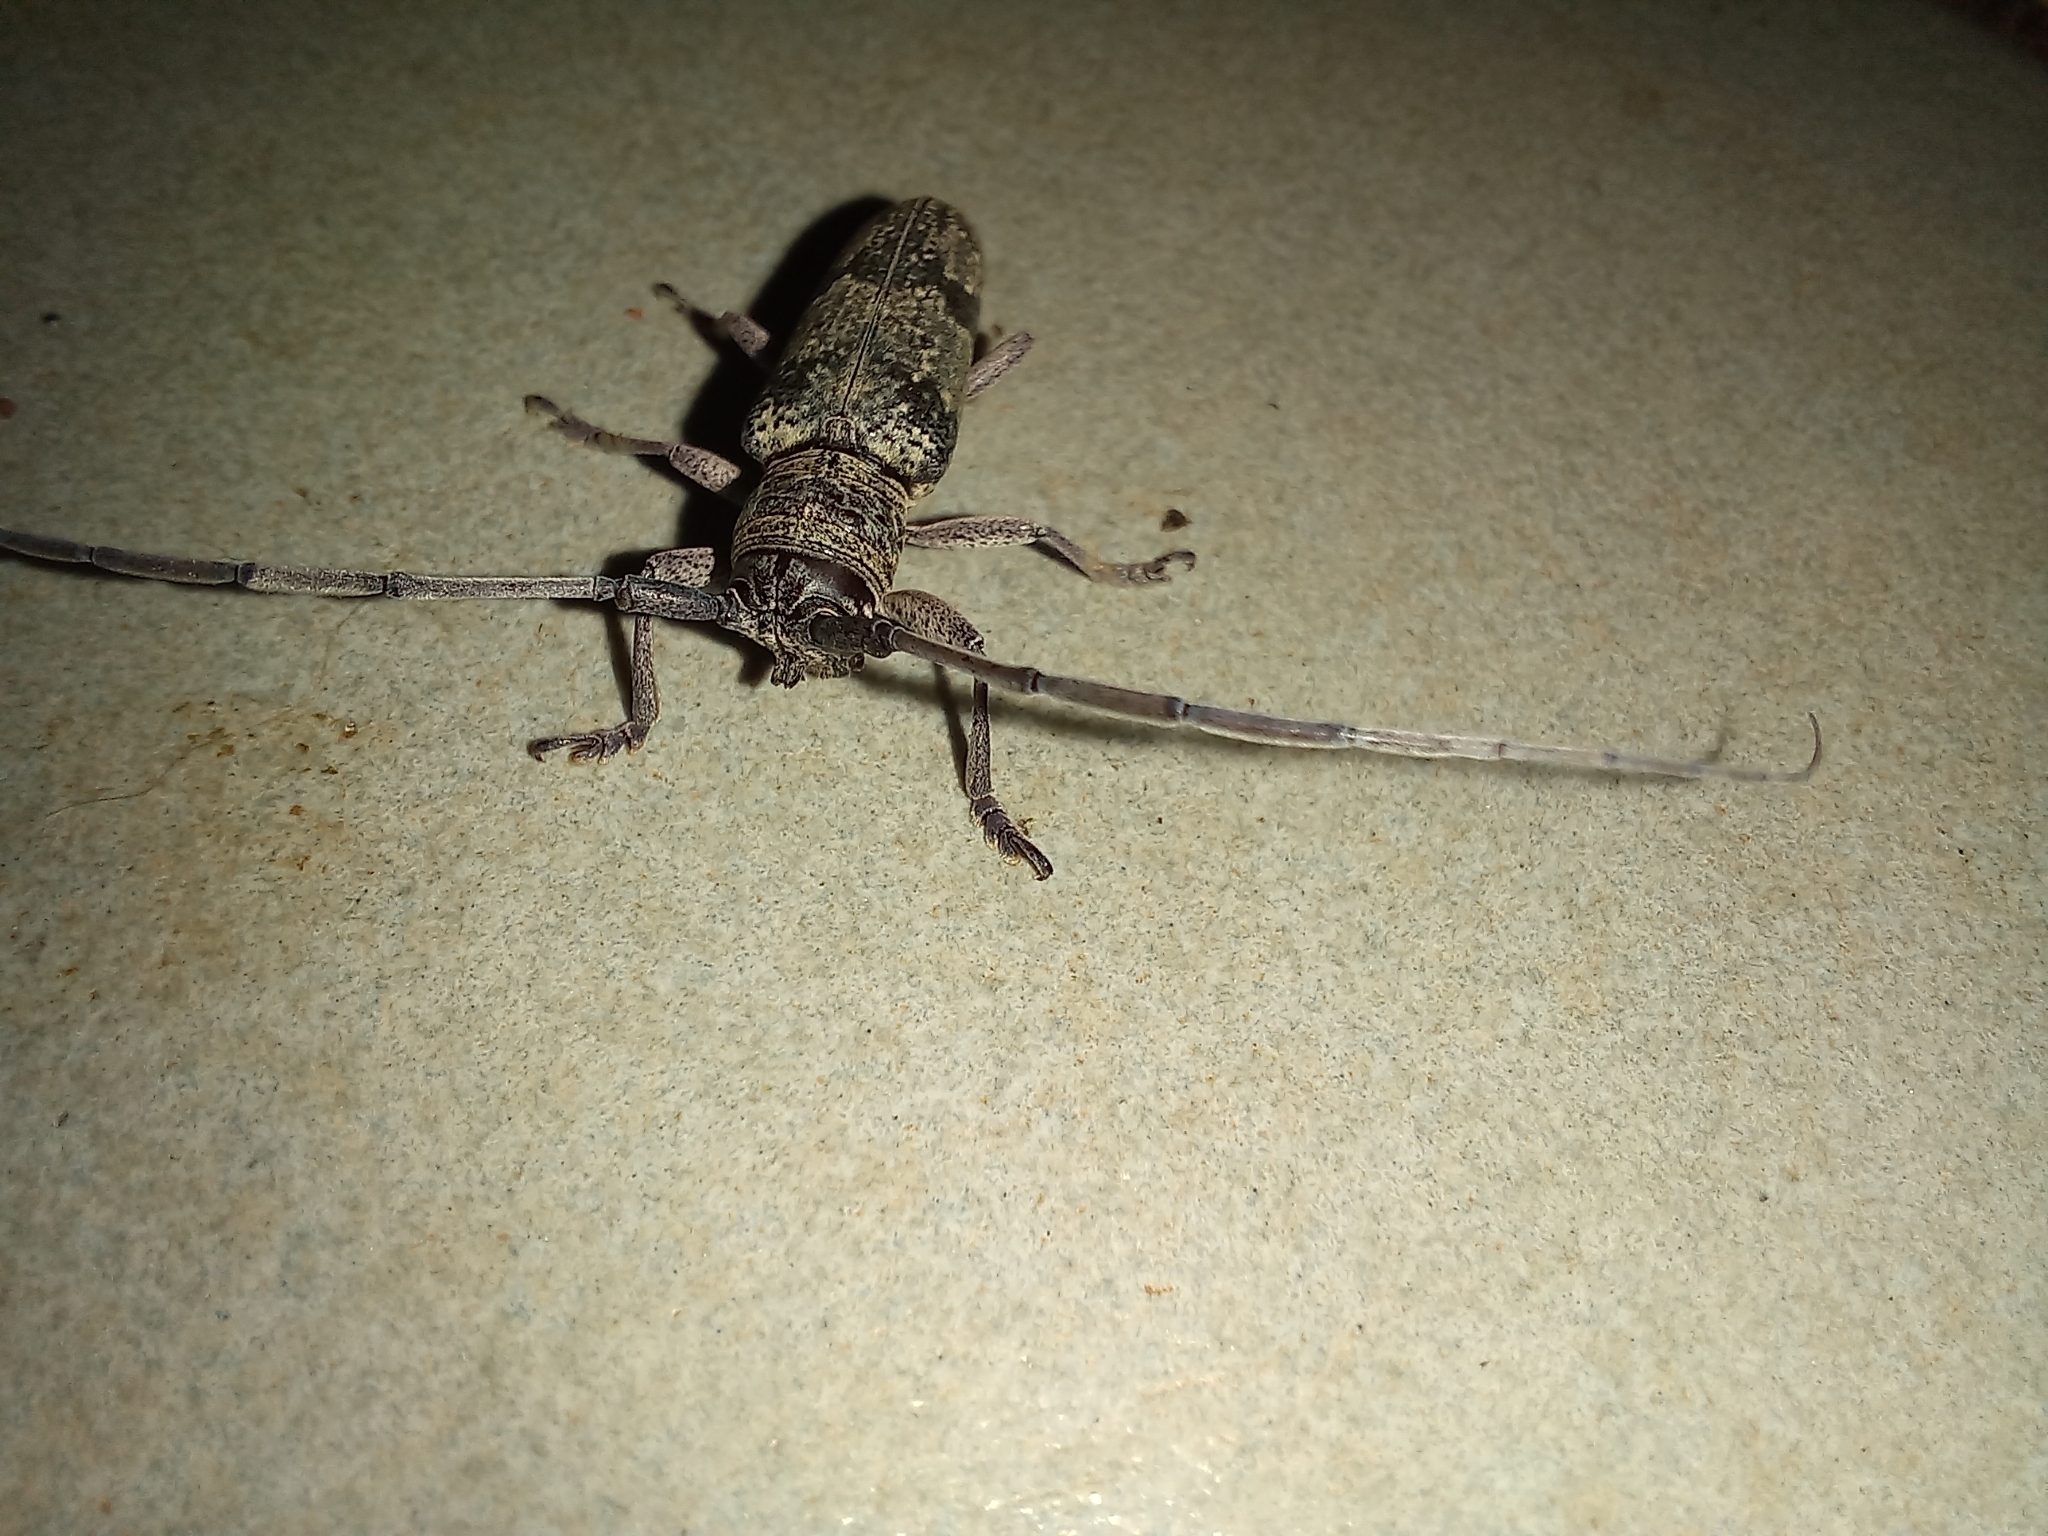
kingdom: Animalia
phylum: Arthropoda
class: Insecta
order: Coleoptera
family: Cerambycidae
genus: Prosopocera
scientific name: Prosopocera inermis
